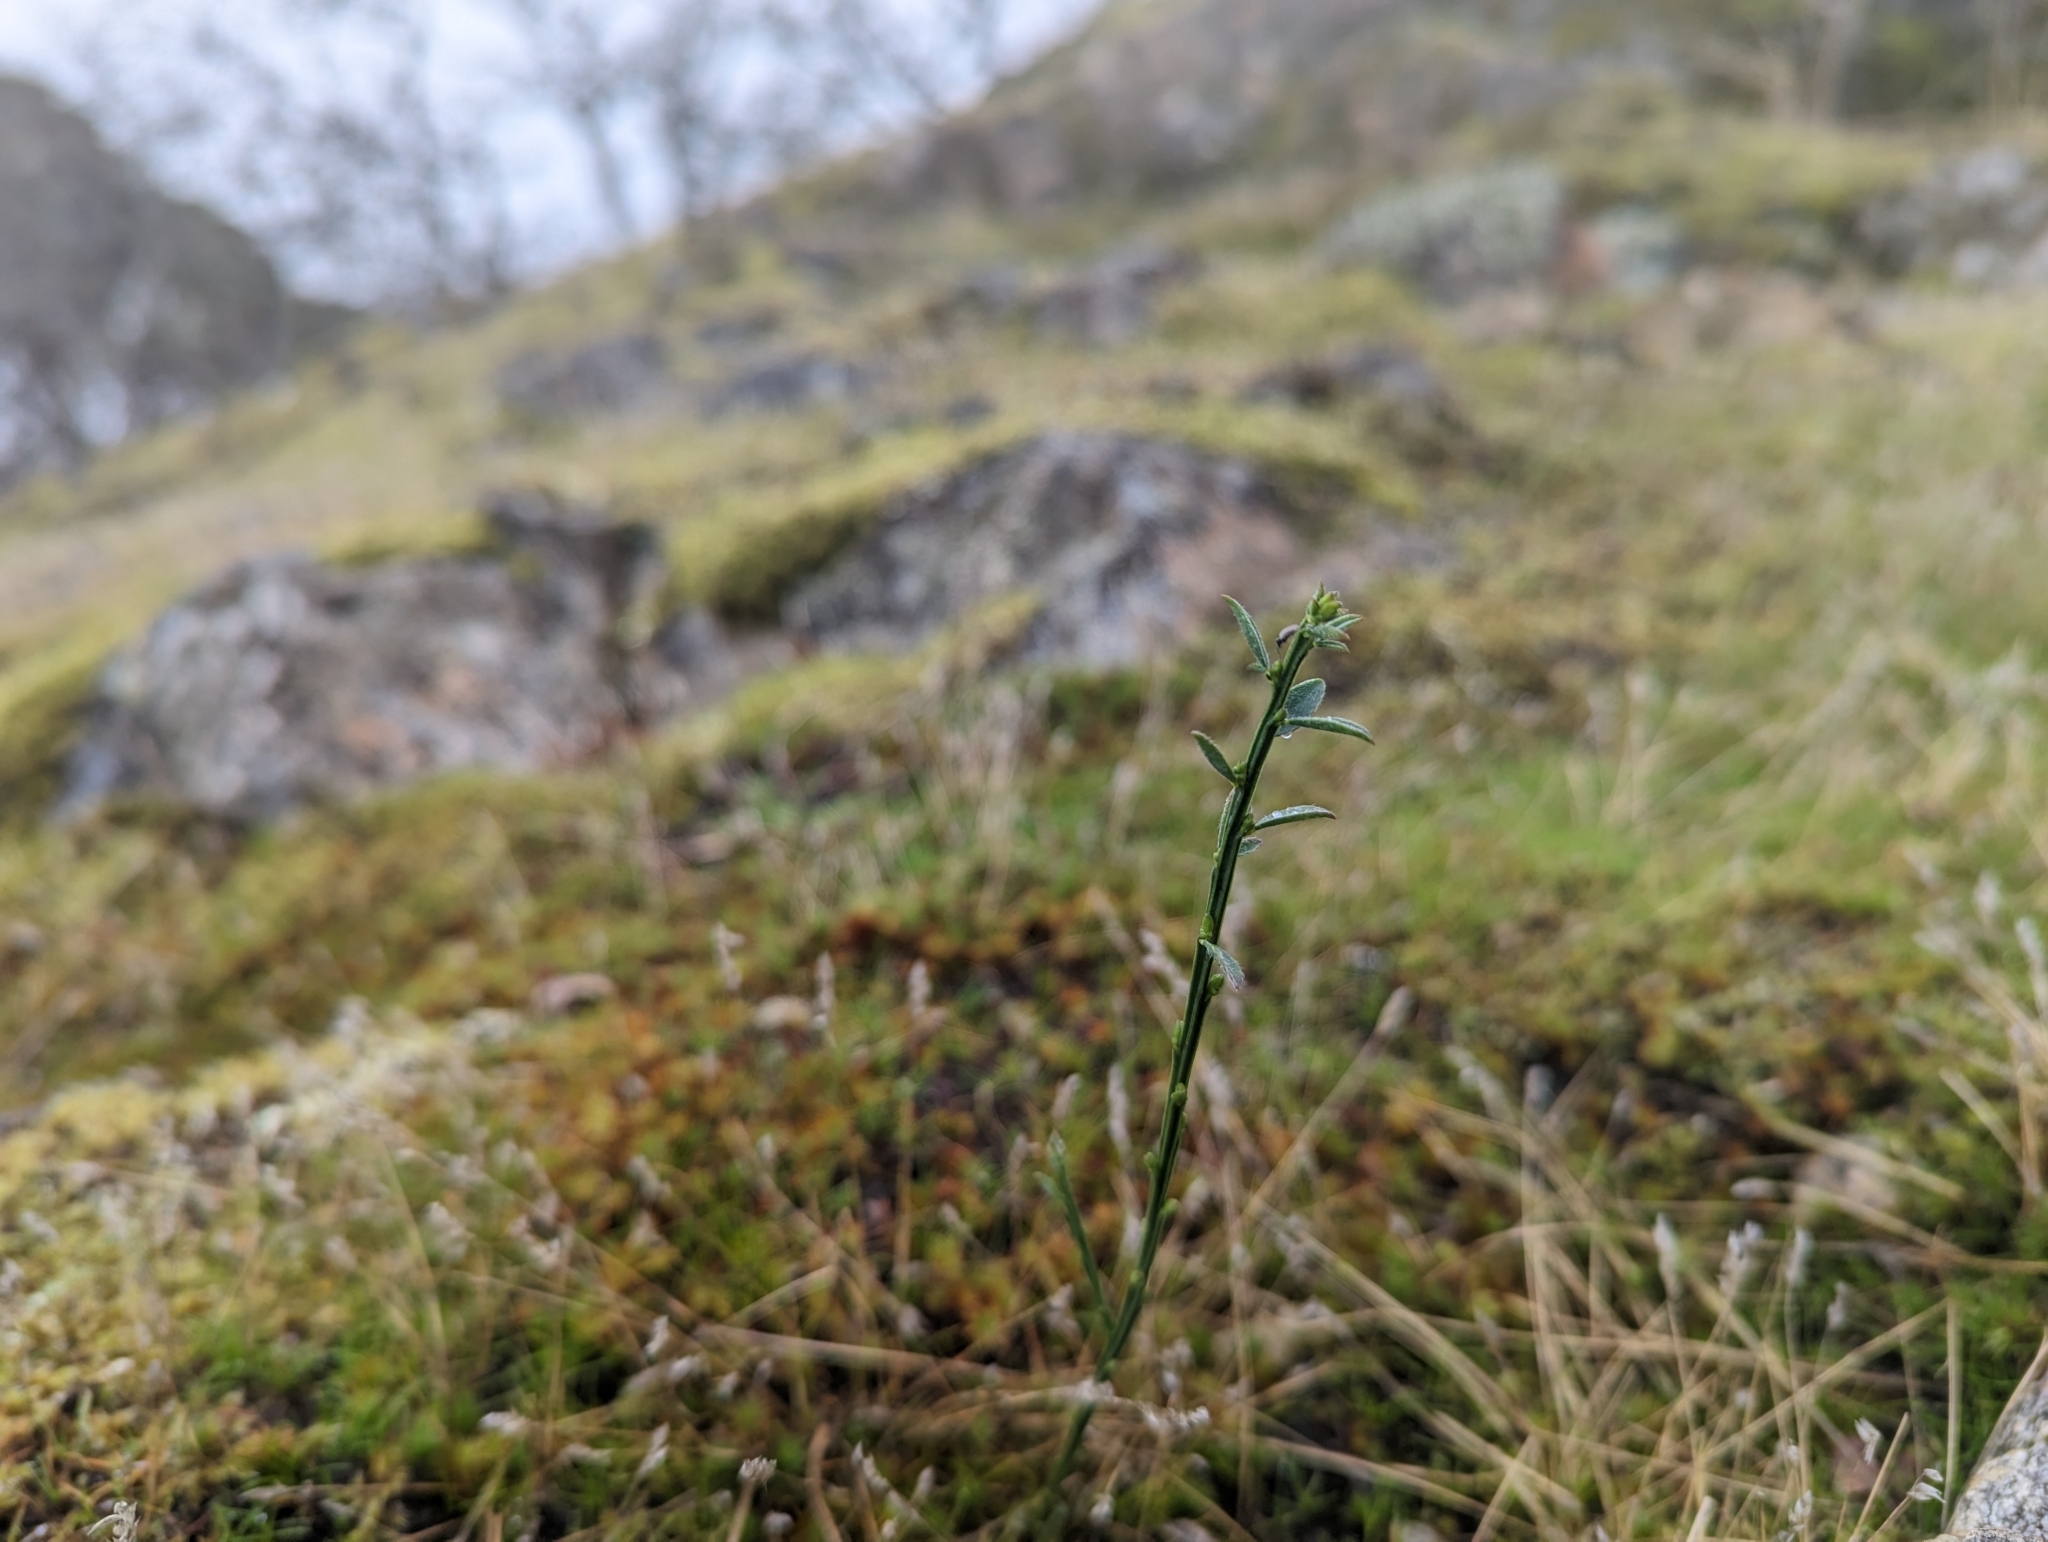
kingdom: Plantae
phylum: Tracheophyta
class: Magnoliopsida
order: Fabales
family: Fabaceae
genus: Cytisus
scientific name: Cytisus scoparius
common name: Scotch broom
